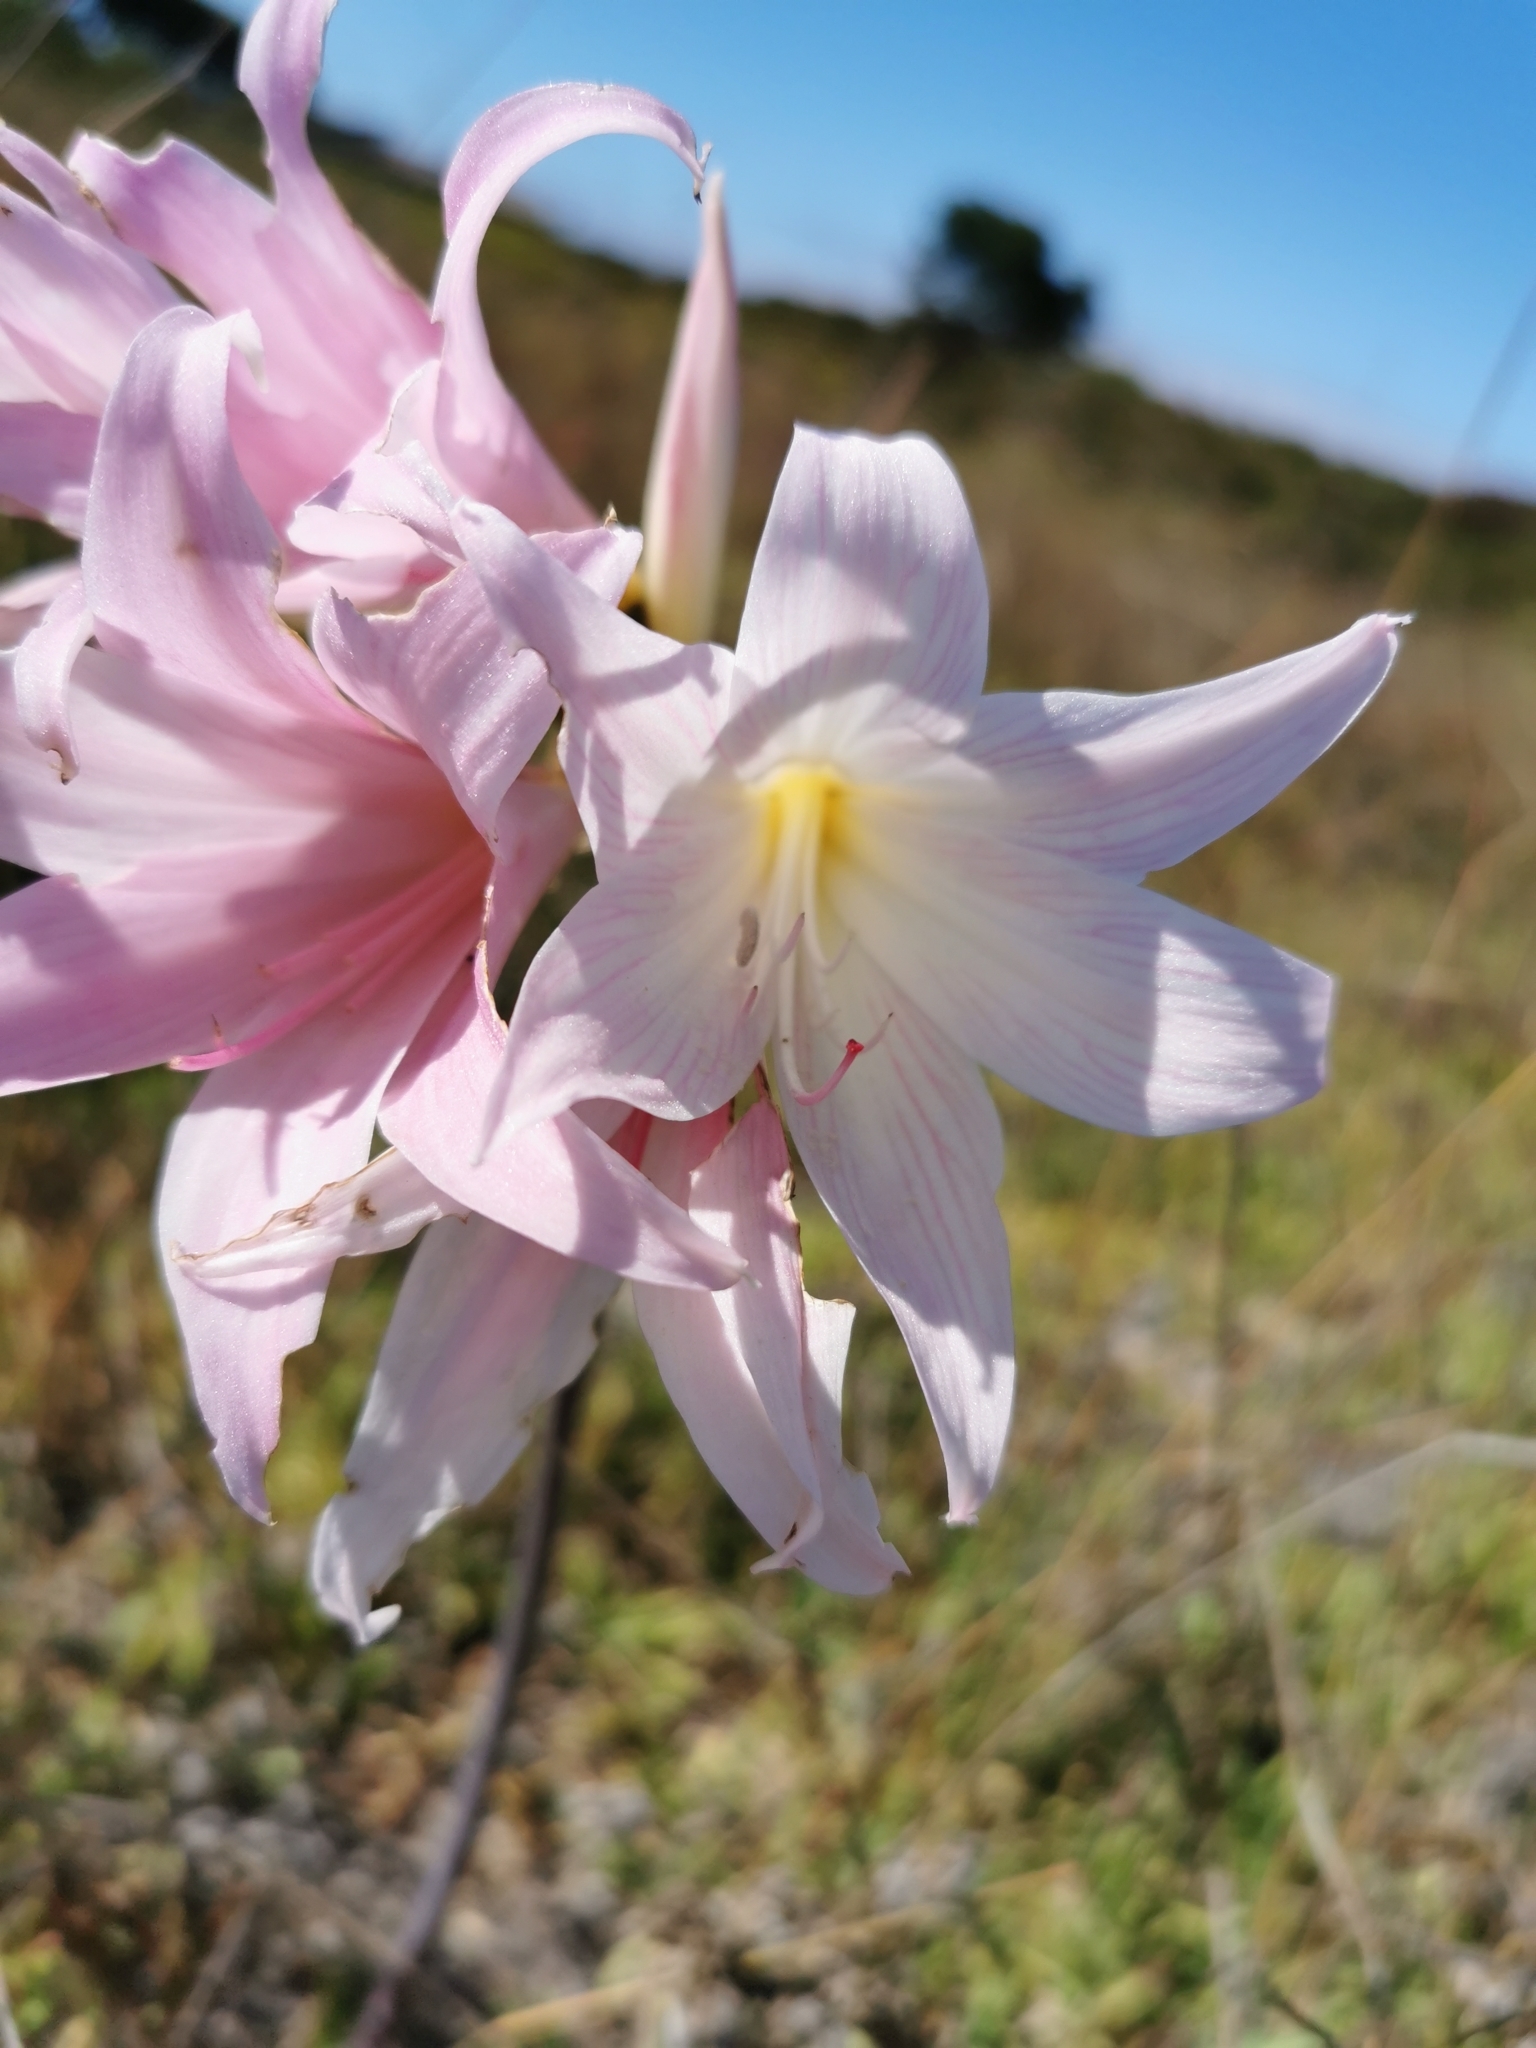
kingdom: Plantae
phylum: Tracheophyta
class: Liliopsida
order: Asparagales
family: Amaryllidaceae
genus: Amaryllis
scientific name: Amaryllis belladonna
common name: Jersey lily
